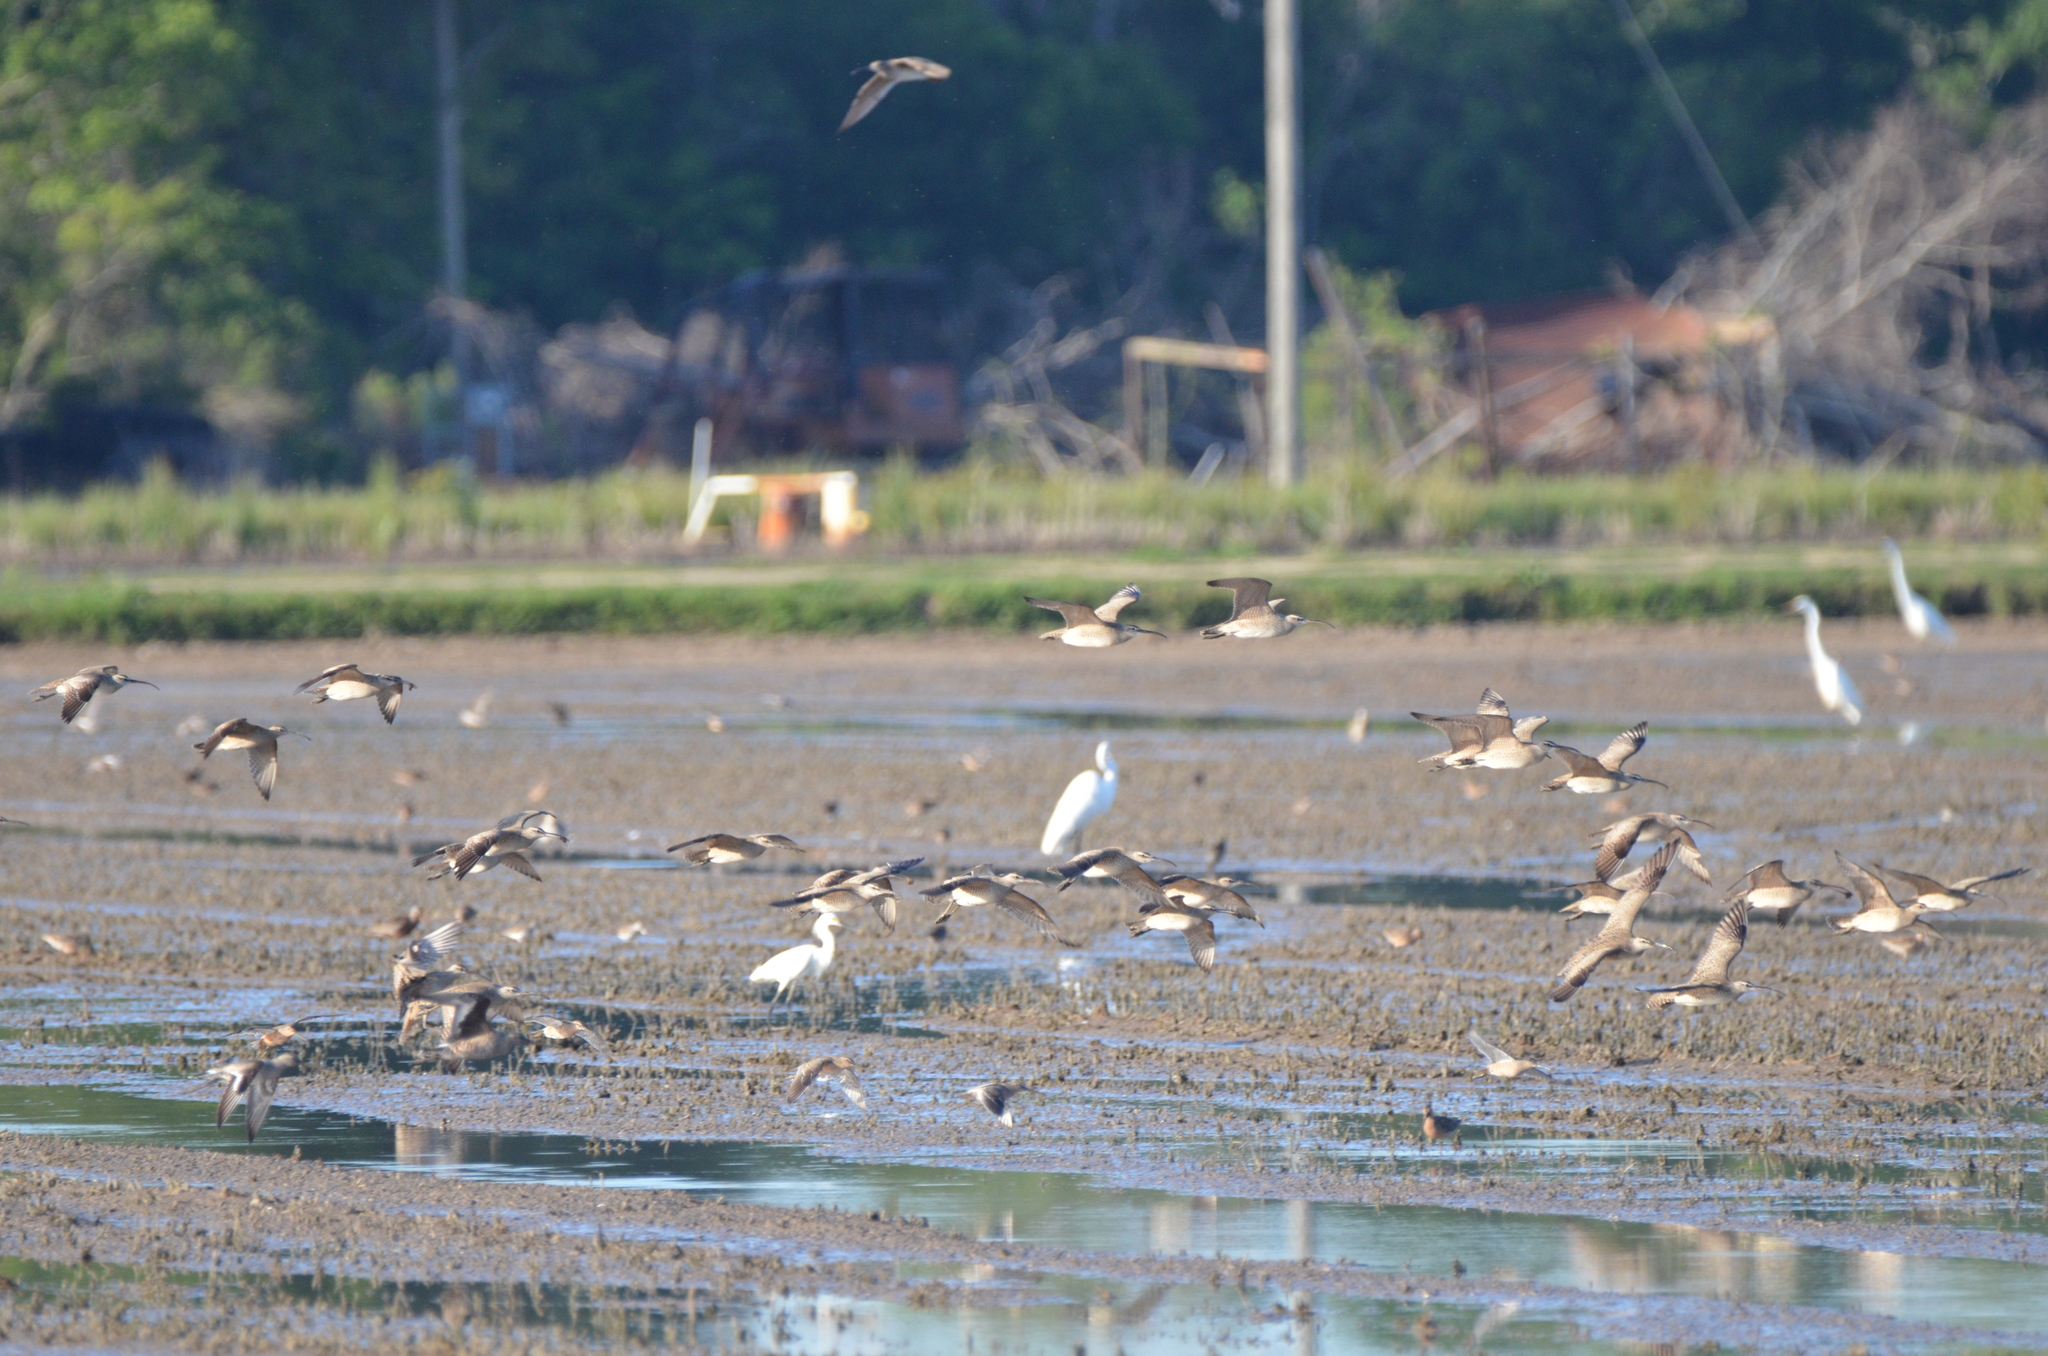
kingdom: Animalia
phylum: Chordata
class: Aves
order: Charadriiformes
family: Scolopacidae
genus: Numenius
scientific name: Numenius phaeopus
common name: Whimbrel
